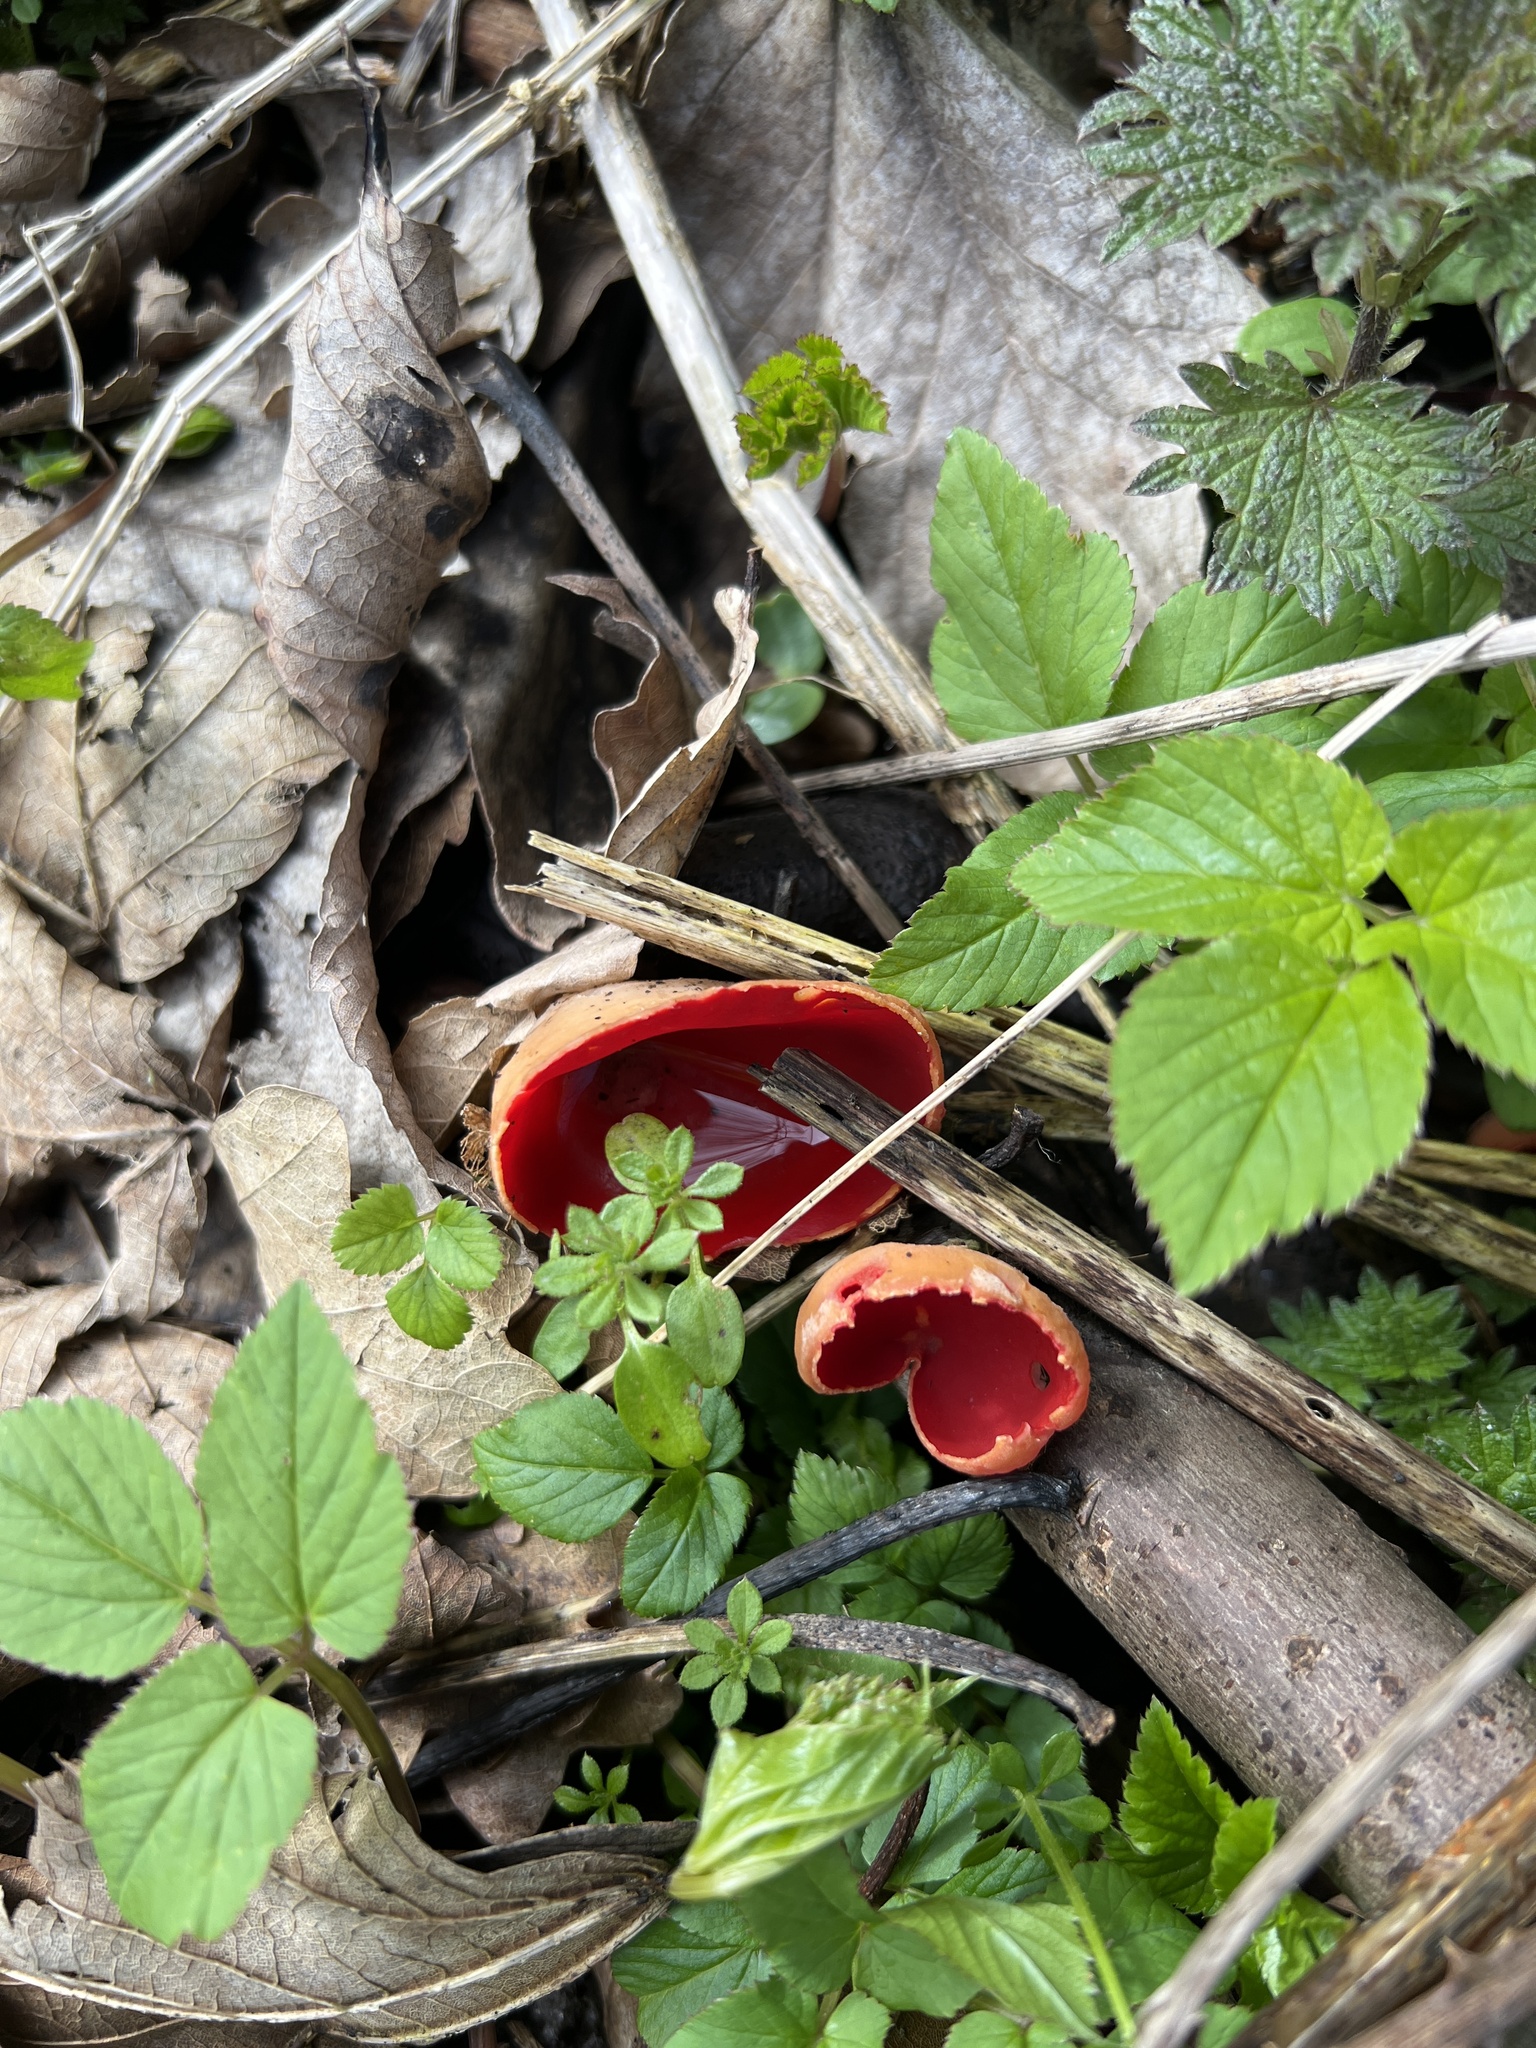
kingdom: Fungi
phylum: Ascomycota
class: Pezizomycetes
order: Pezizales
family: Sarcoscyphaceae
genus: Sarcoscypha
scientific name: Sarcoscypha
